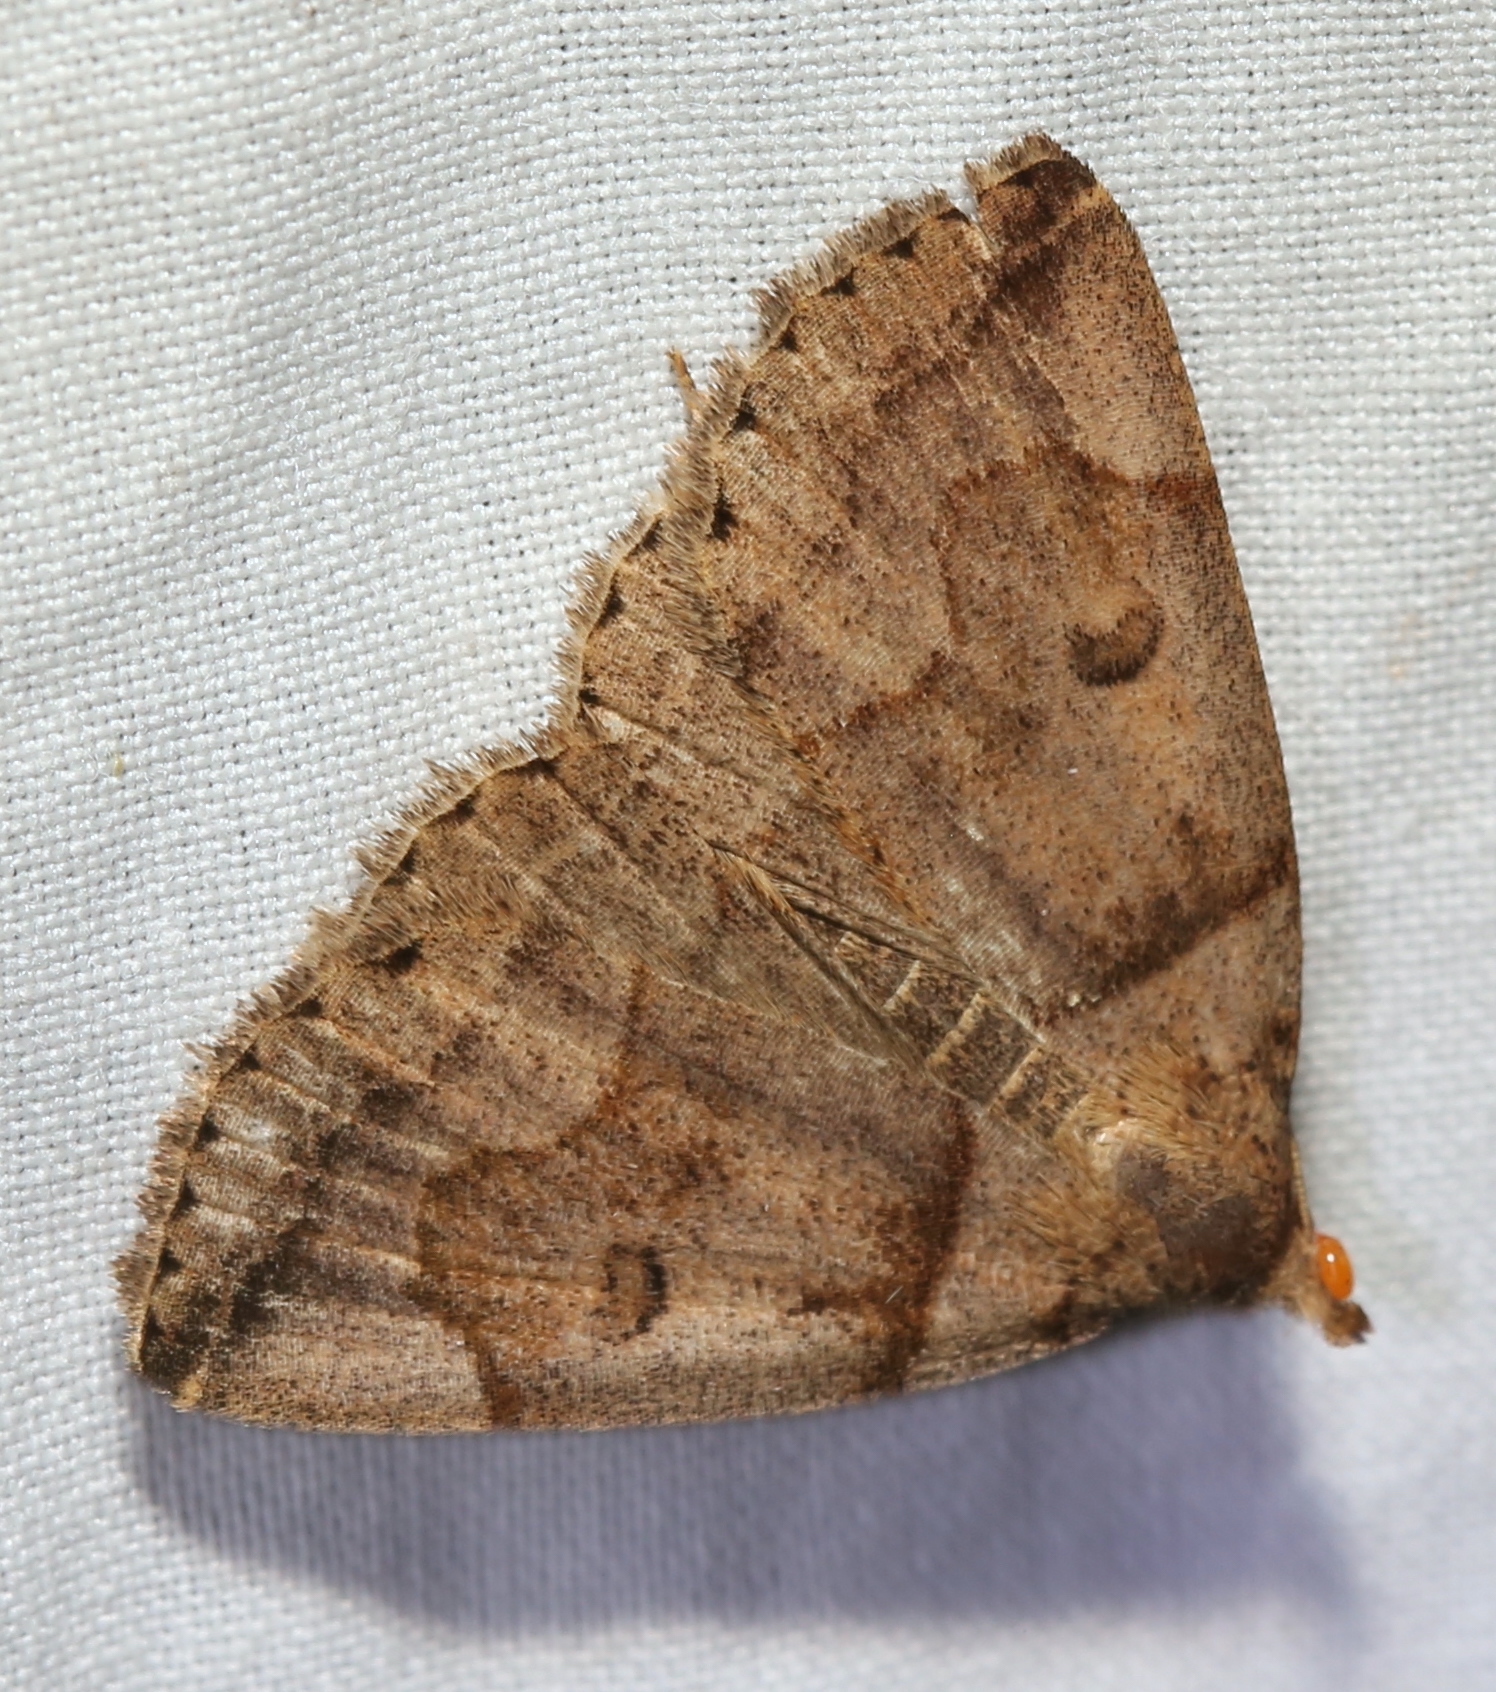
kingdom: Animalia
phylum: Arthropoda
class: Insecta
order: Lepidoptera
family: Erebidae
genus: Zanclognatha
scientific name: Zanclognatha laevigata
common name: Variable fan-foot
